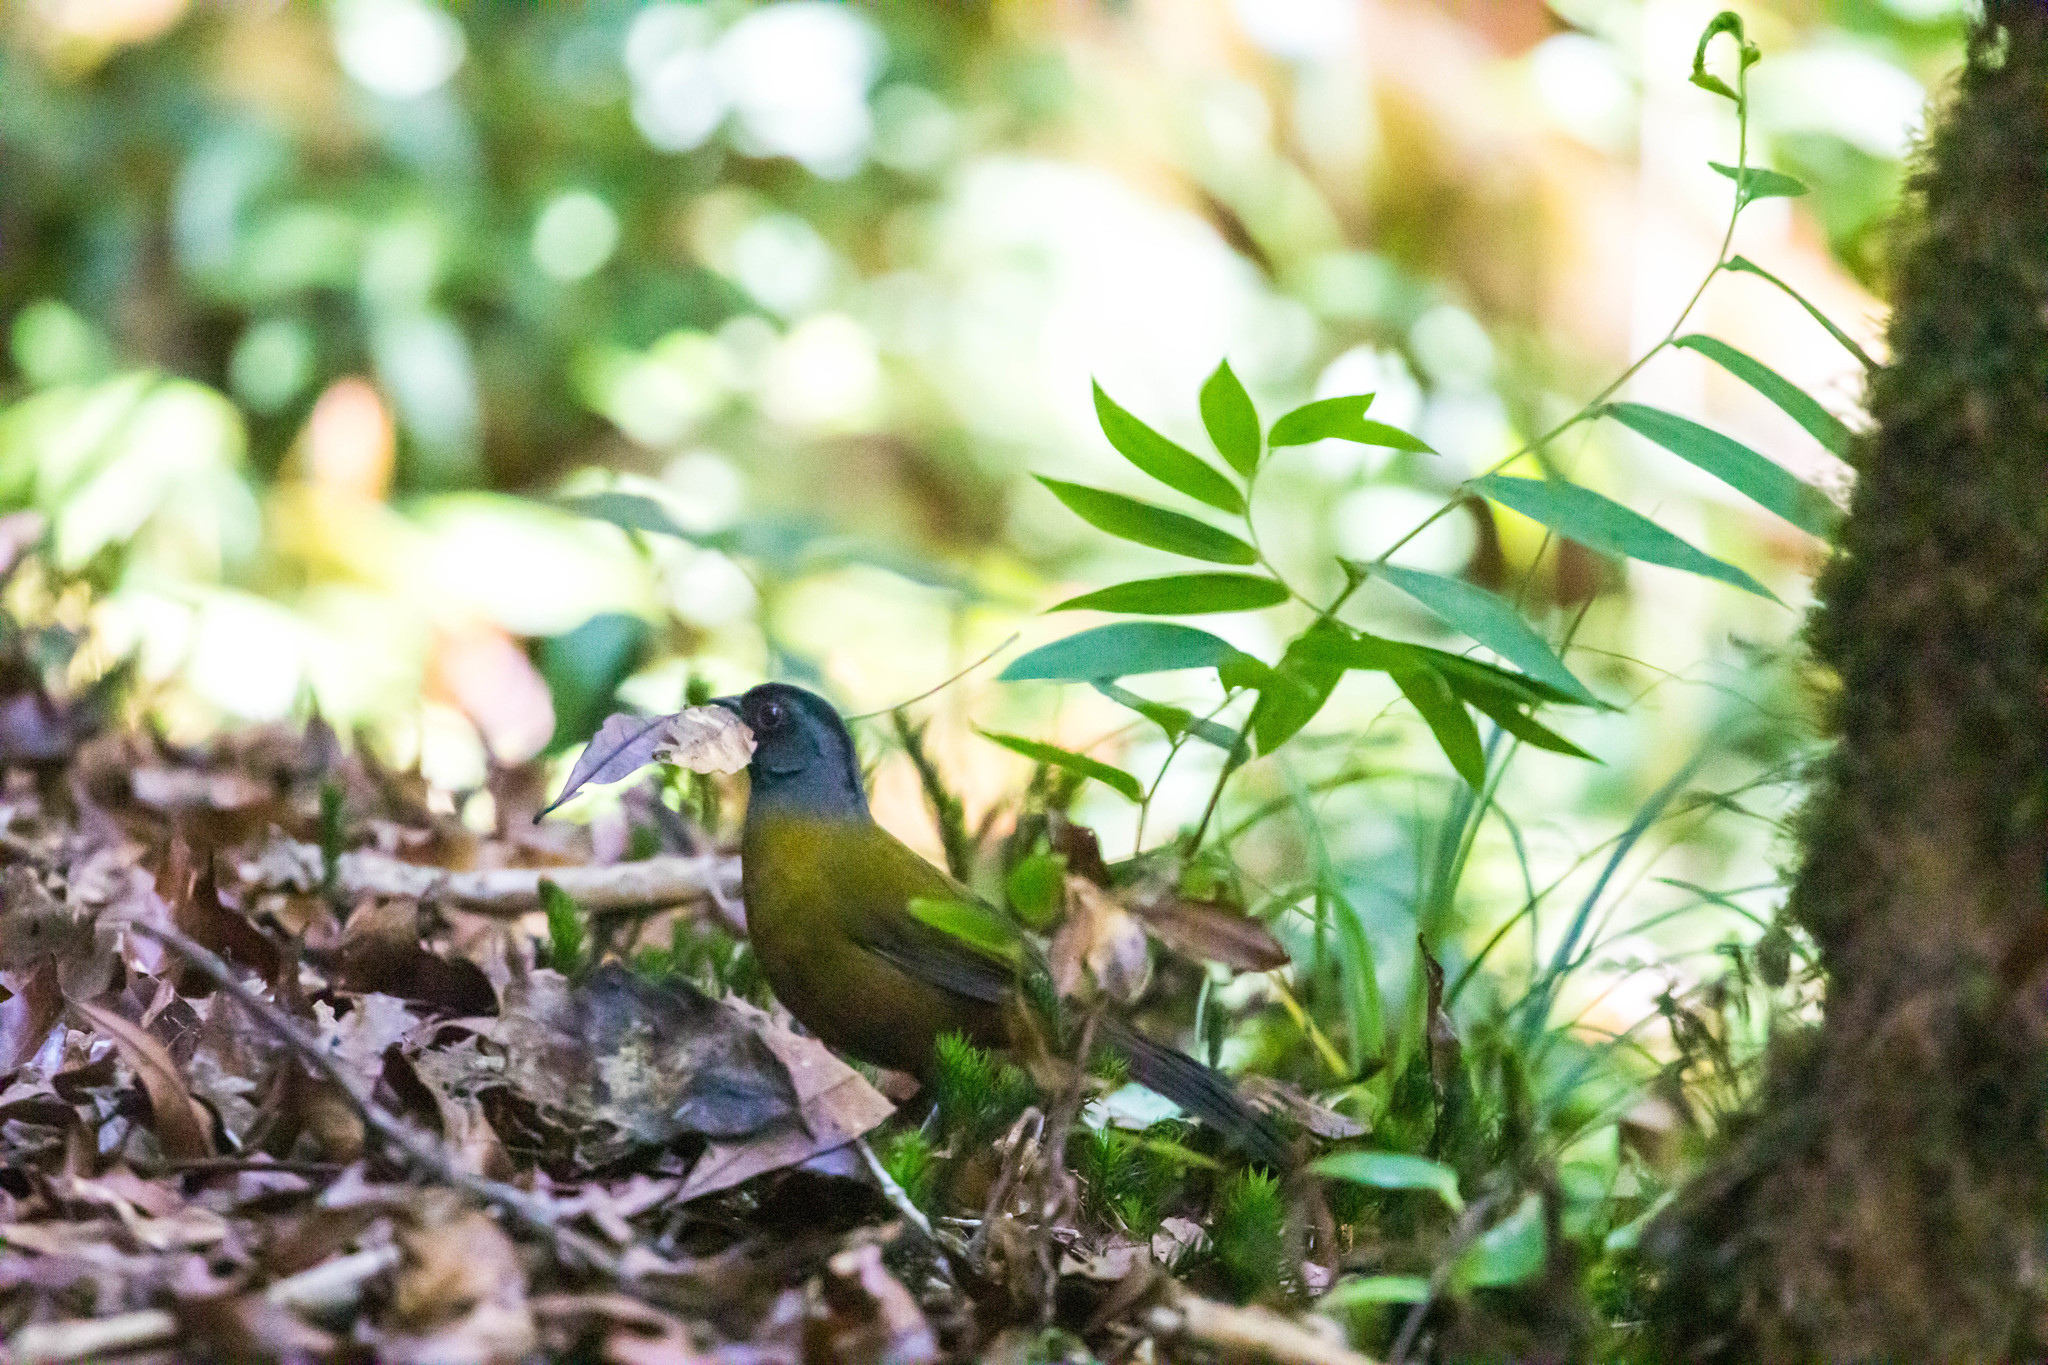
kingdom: Animalia
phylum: Chordata
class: Aves
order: Passeriformes
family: Passerellidae
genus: Pezopetes
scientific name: Pezopetes capitalis
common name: Large-footed finch
